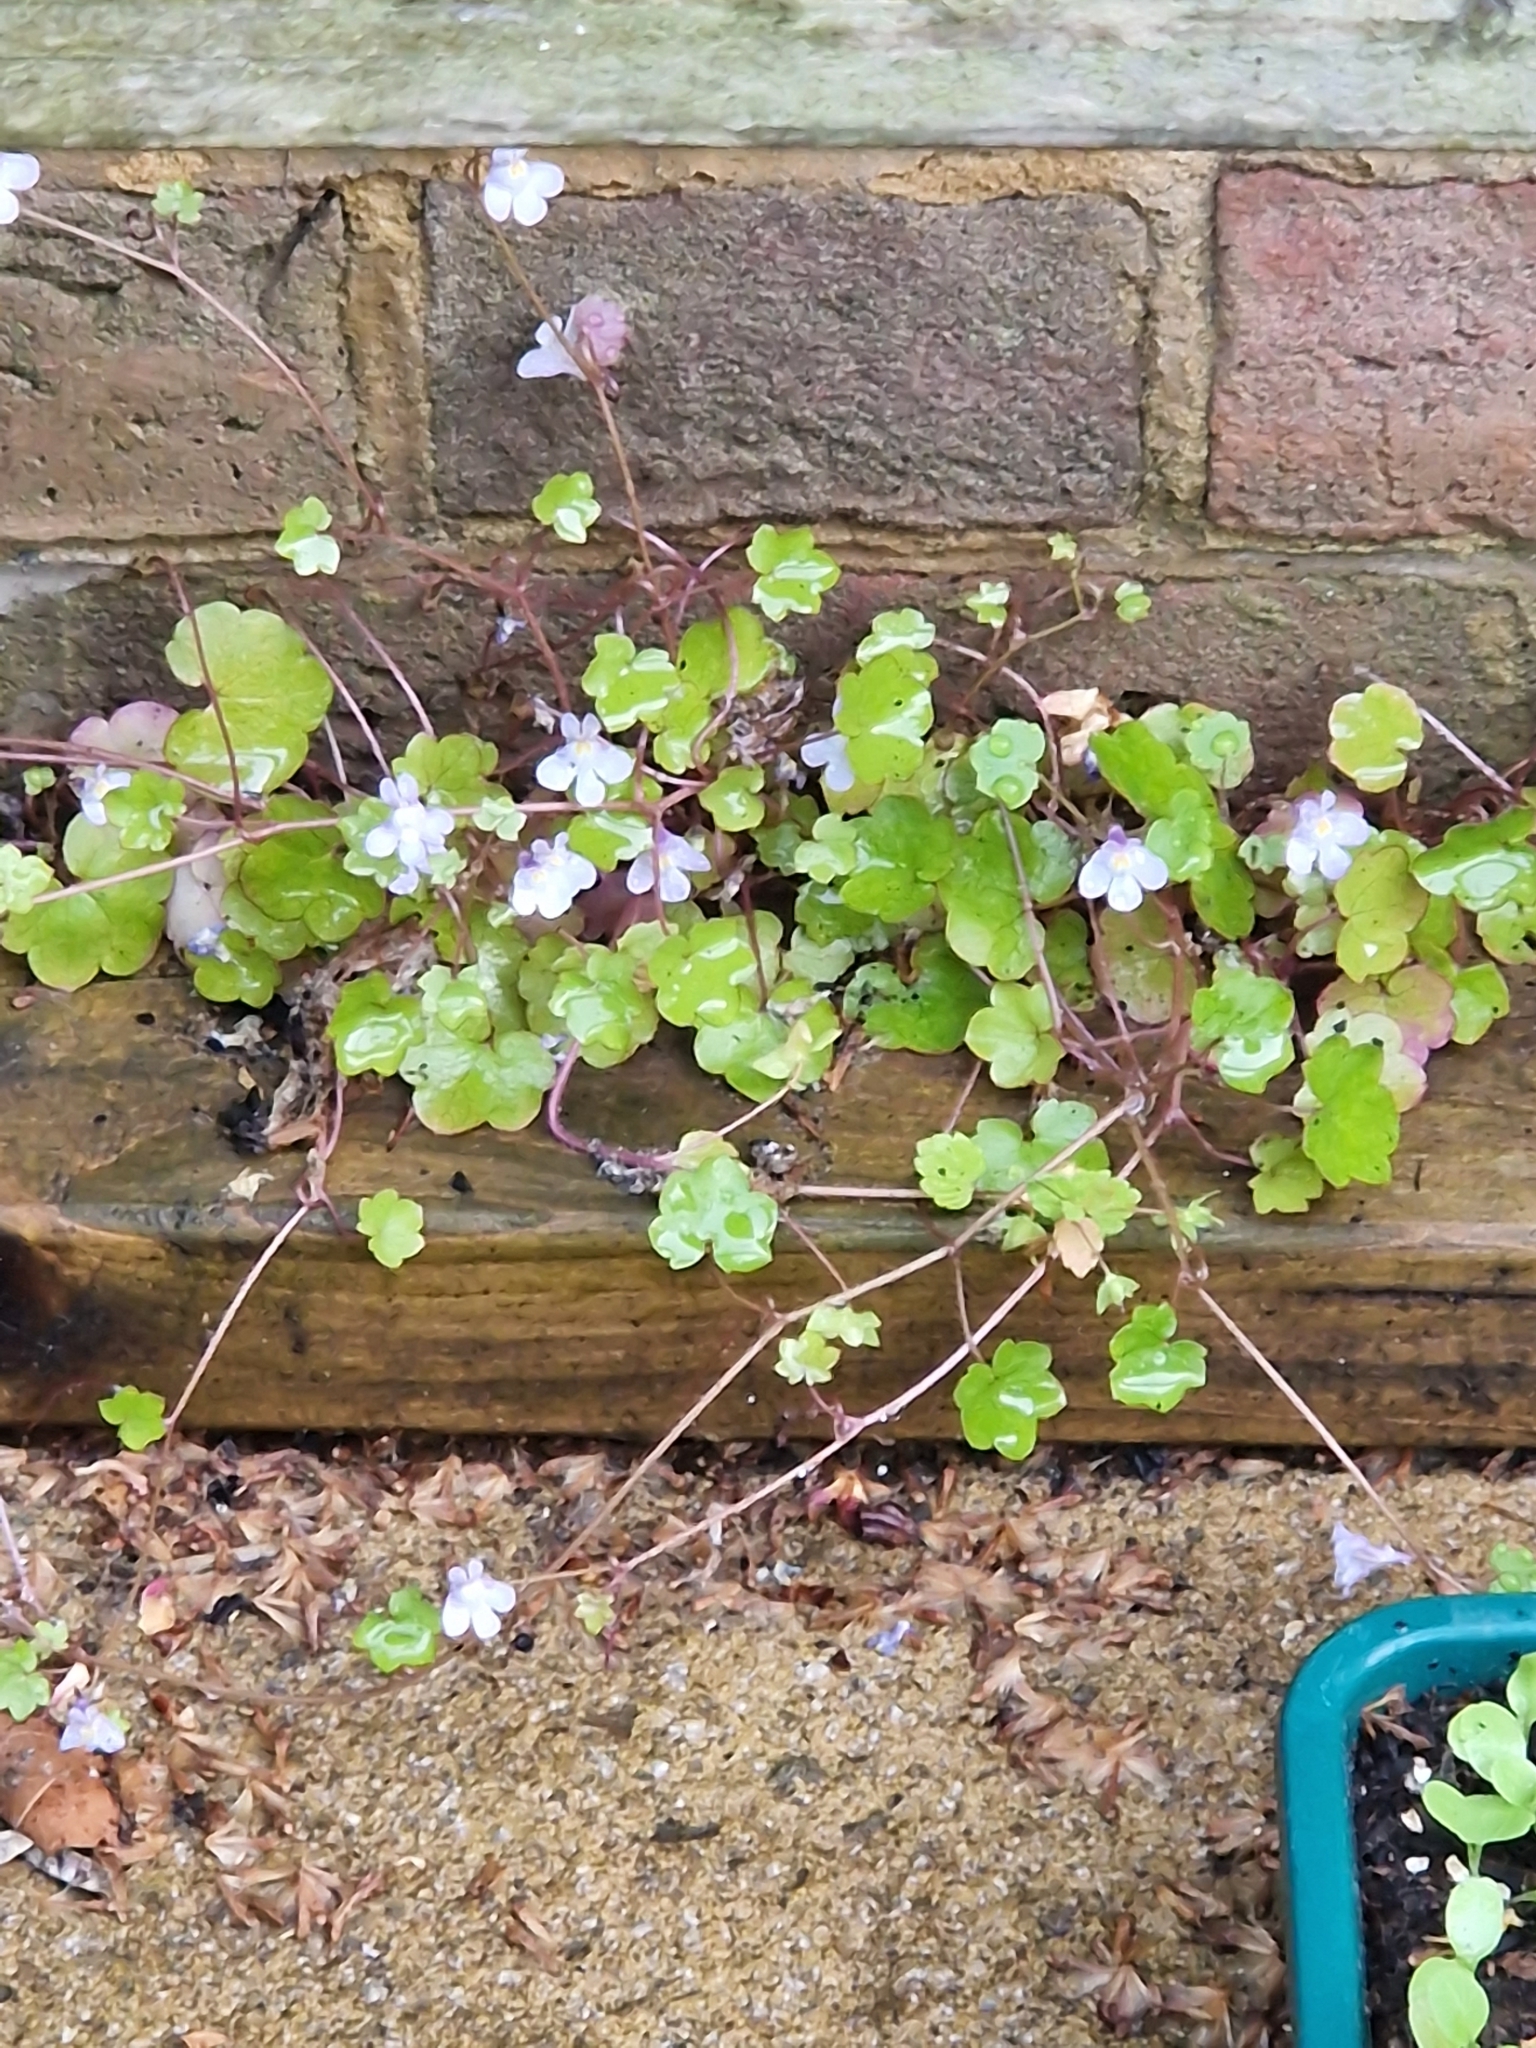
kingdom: Plantae
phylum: Tracheophyta
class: Magnoliopsida
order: Lamiales
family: Plantaginaceae
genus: Cymbalaria
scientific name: Cymbalaria muralis
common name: Ivy-leaved toadflax
